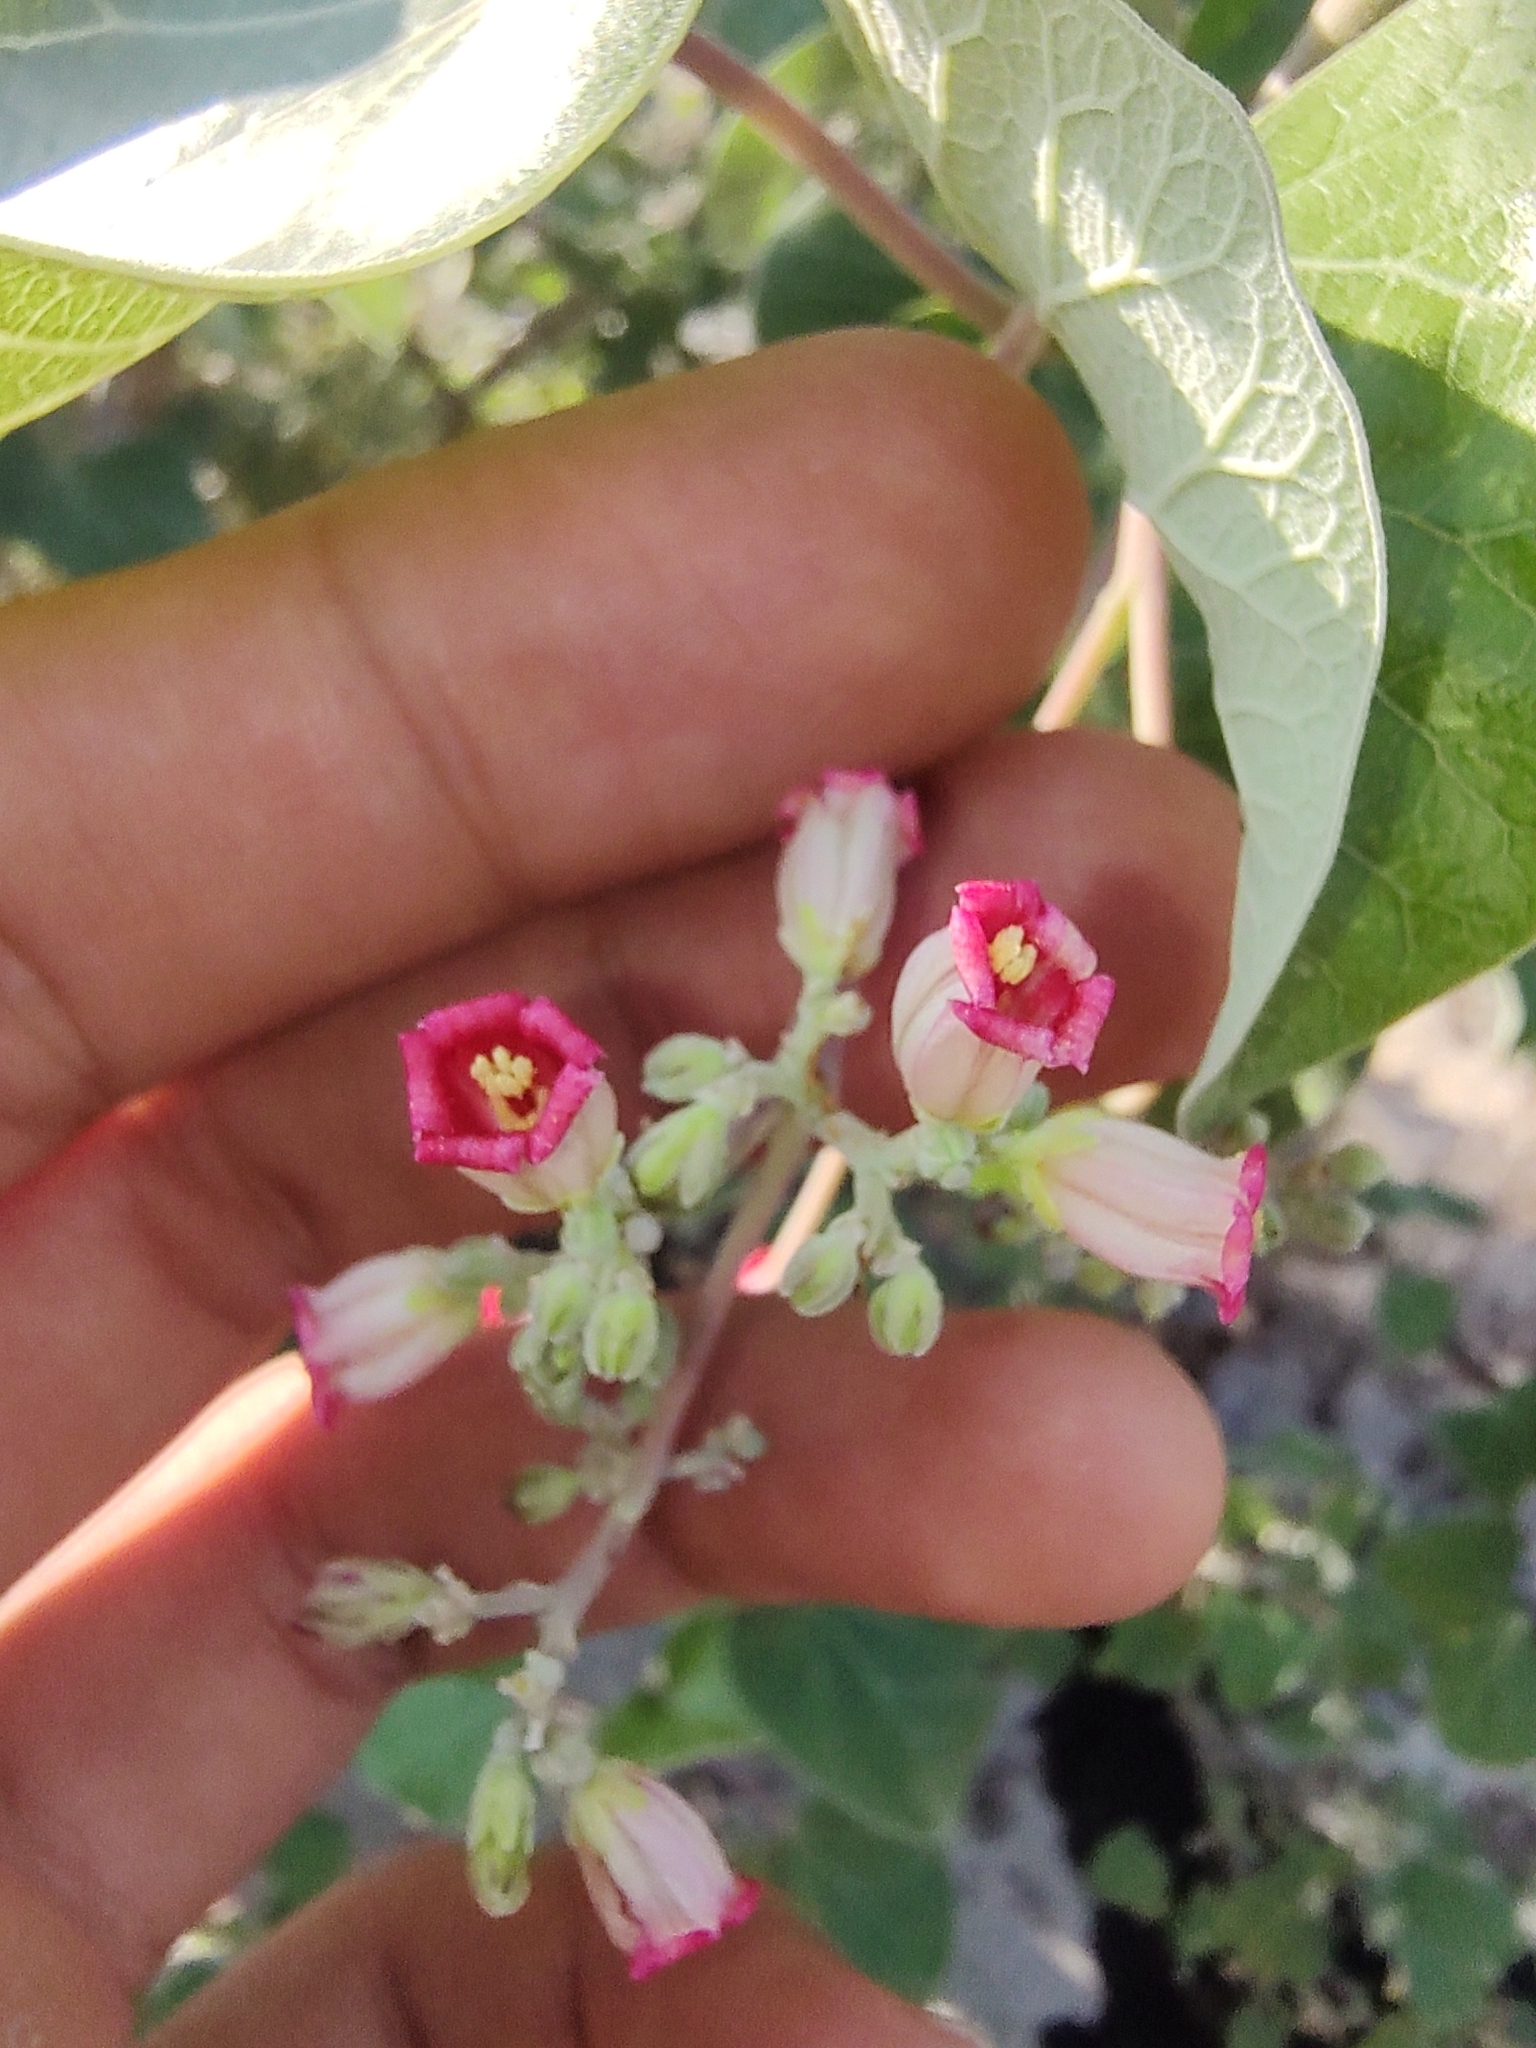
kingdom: Plantae
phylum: Tracheophyta
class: Magnoliopsida
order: Malpighiales
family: Euphorbiaceae
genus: Jatropha
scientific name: Jatropha cinerea
